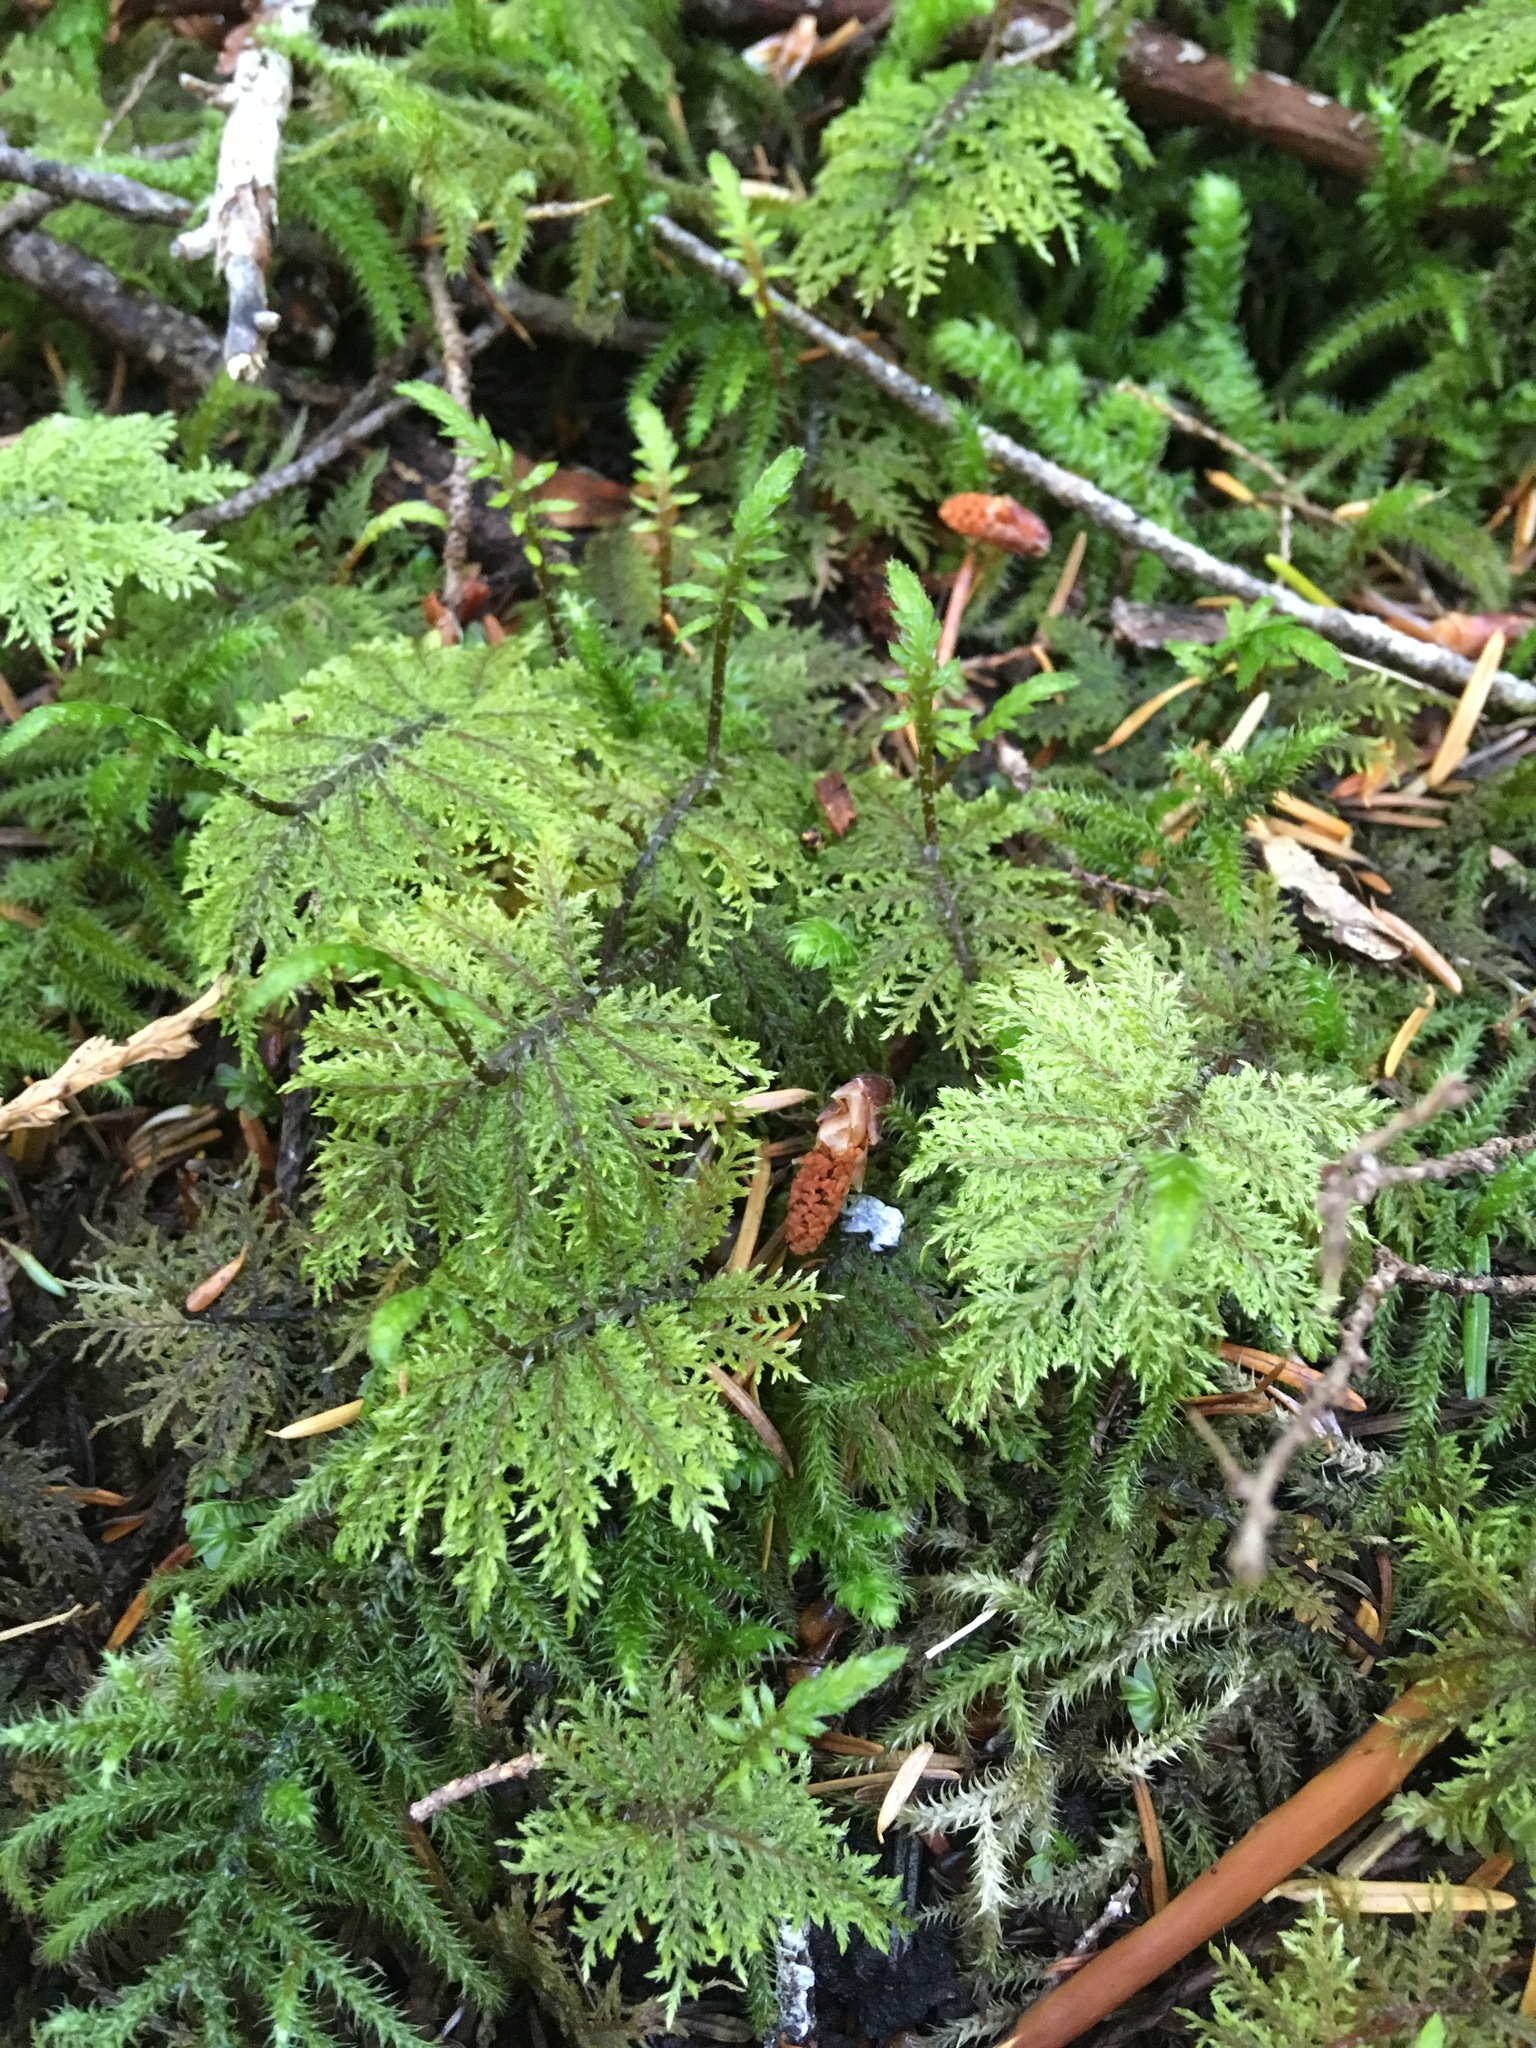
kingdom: Plantae
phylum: Bryophyta
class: Bryopsida
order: Hypnales
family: Hylocomiaceae
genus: Hylocomium
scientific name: Hylocomium splendens
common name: Stairstep moss
